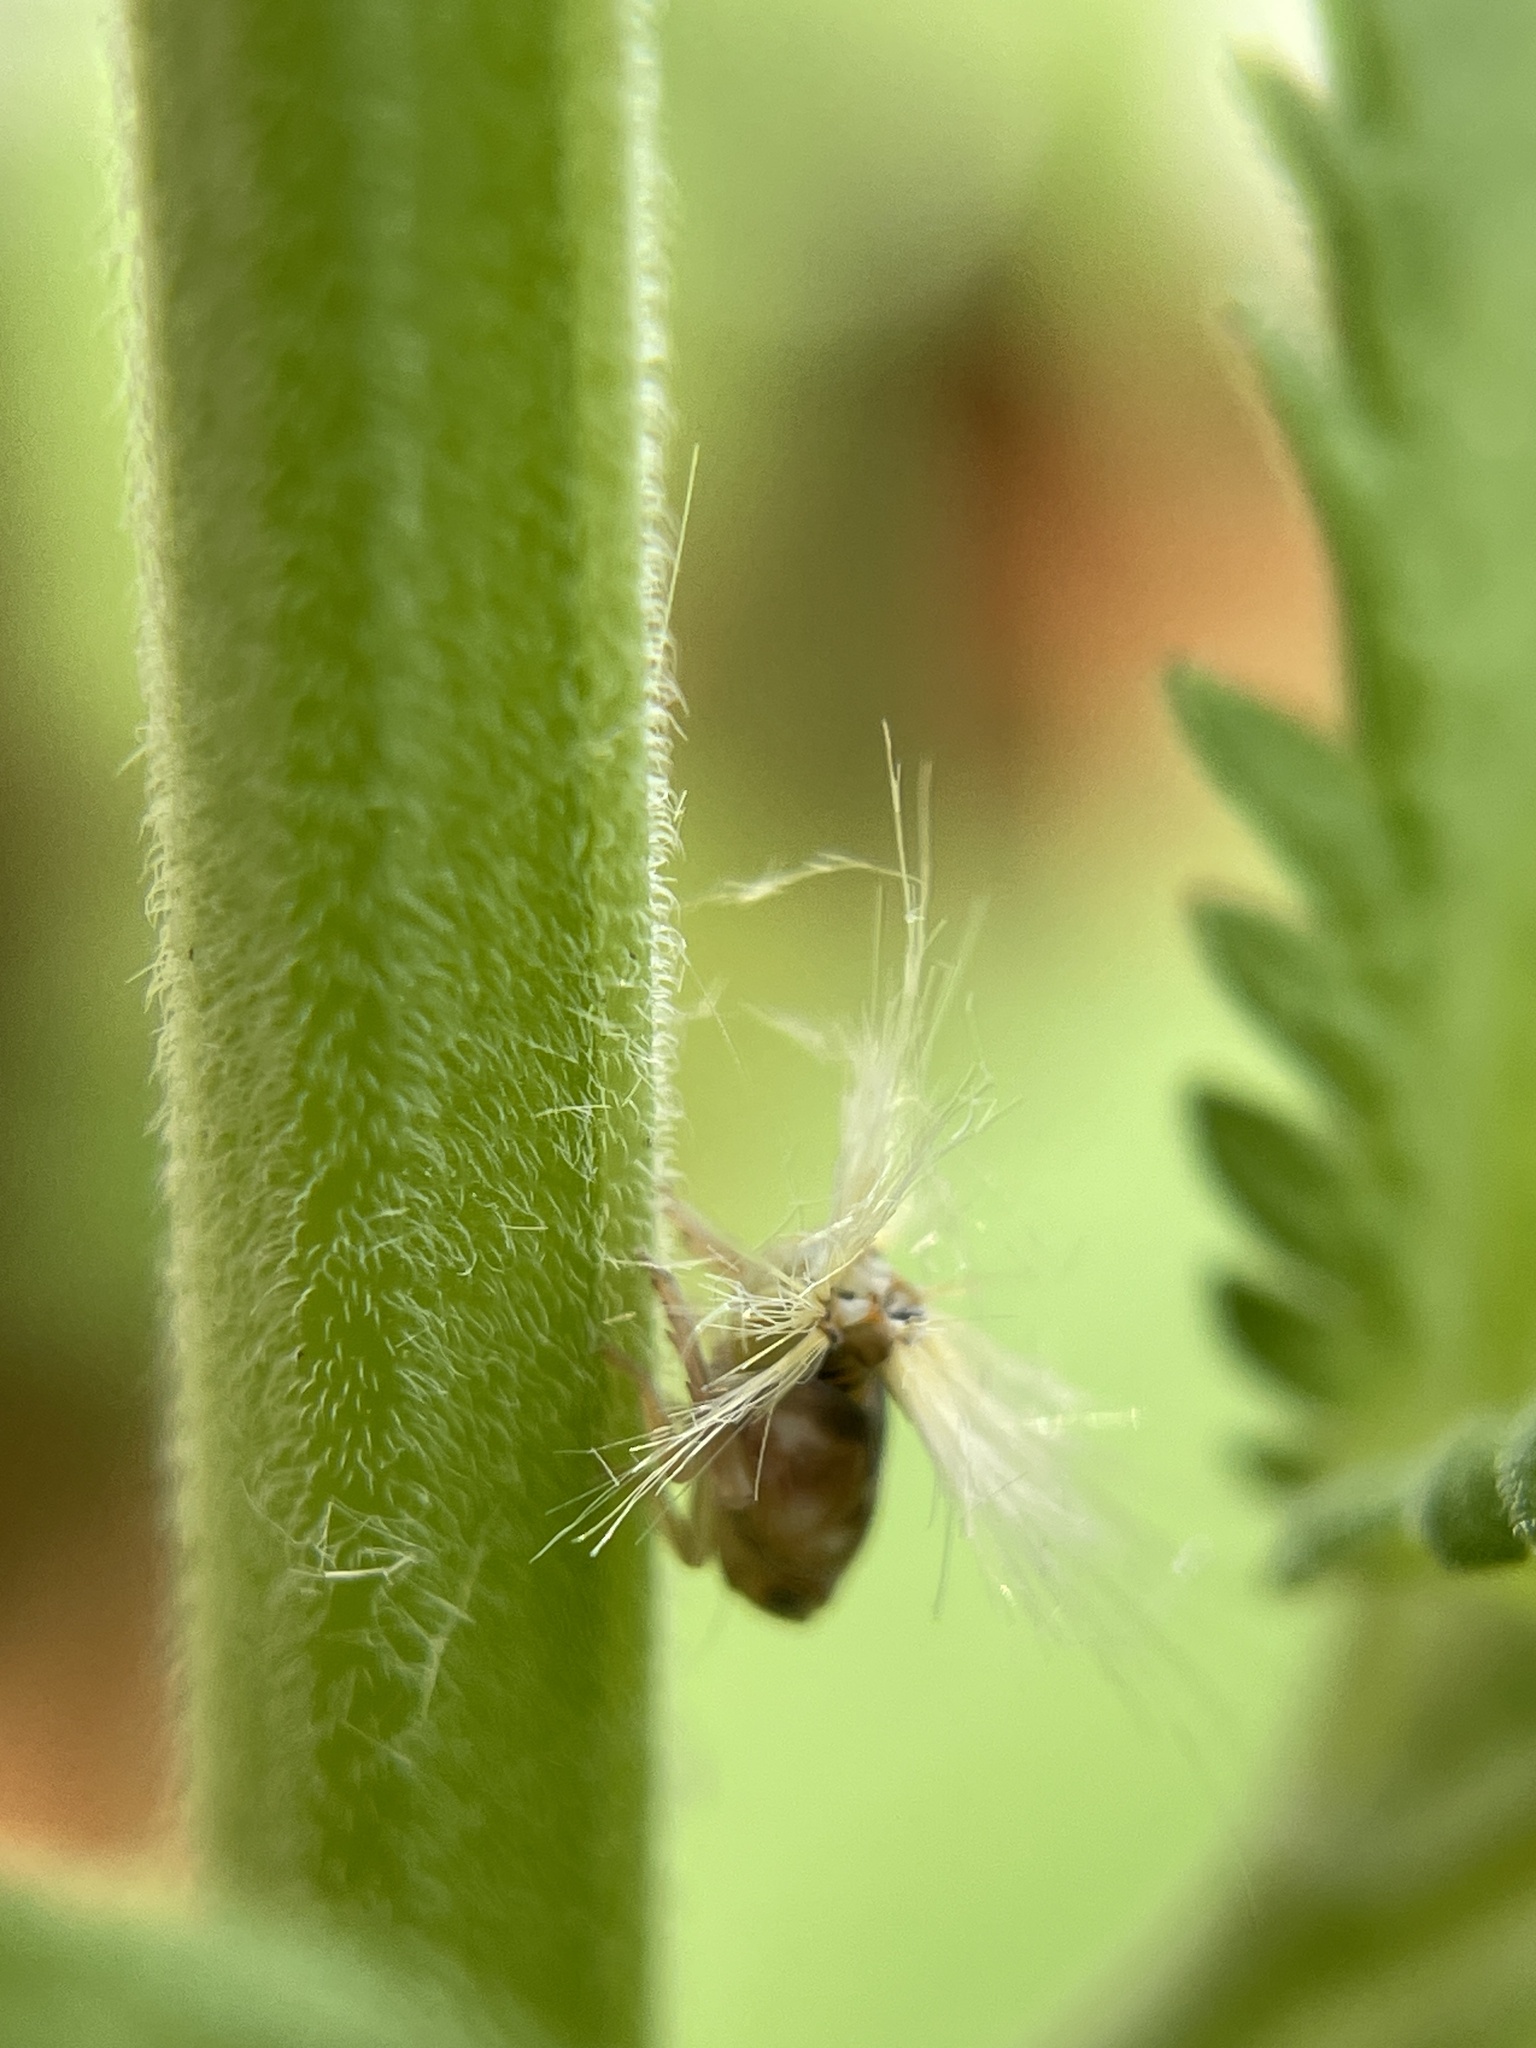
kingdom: Animalia
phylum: Arthropoda
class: Insecta
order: Hemiptera
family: Ricaniidae
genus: Scolypopa
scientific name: Scolypopa australis
